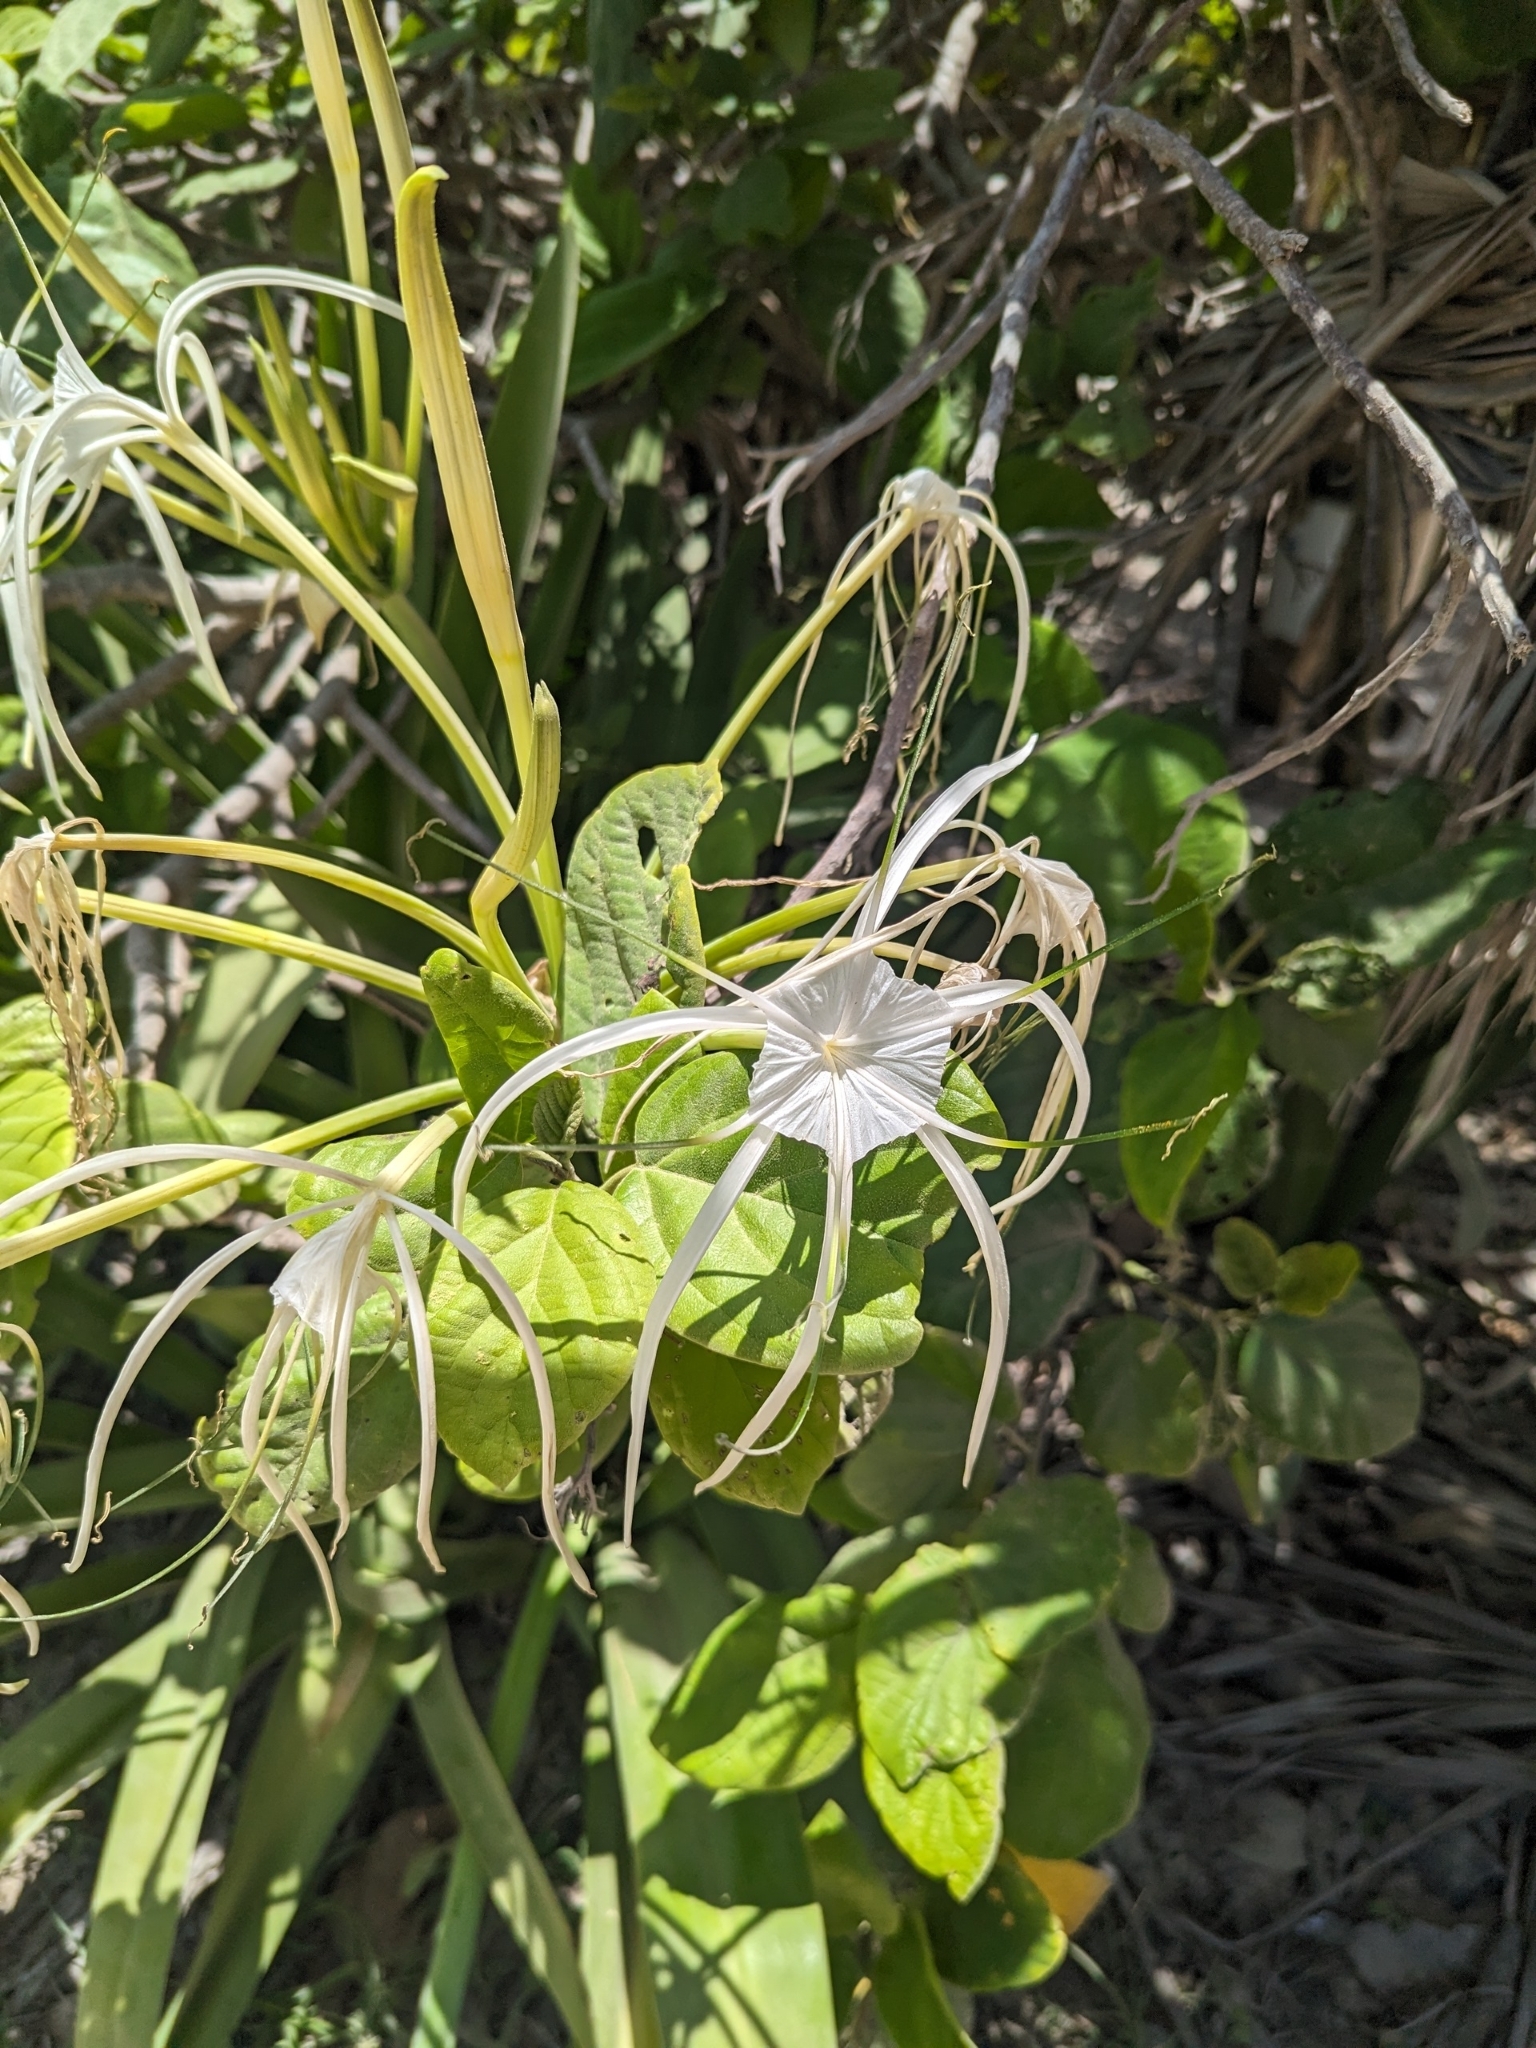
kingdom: Plantae
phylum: Tracheophyta
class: Liliopsida
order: Asparagales
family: Amaryllidaceae
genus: Hymenocallis
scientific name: Hymenocallis littoralis
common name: Beach spiderlily
